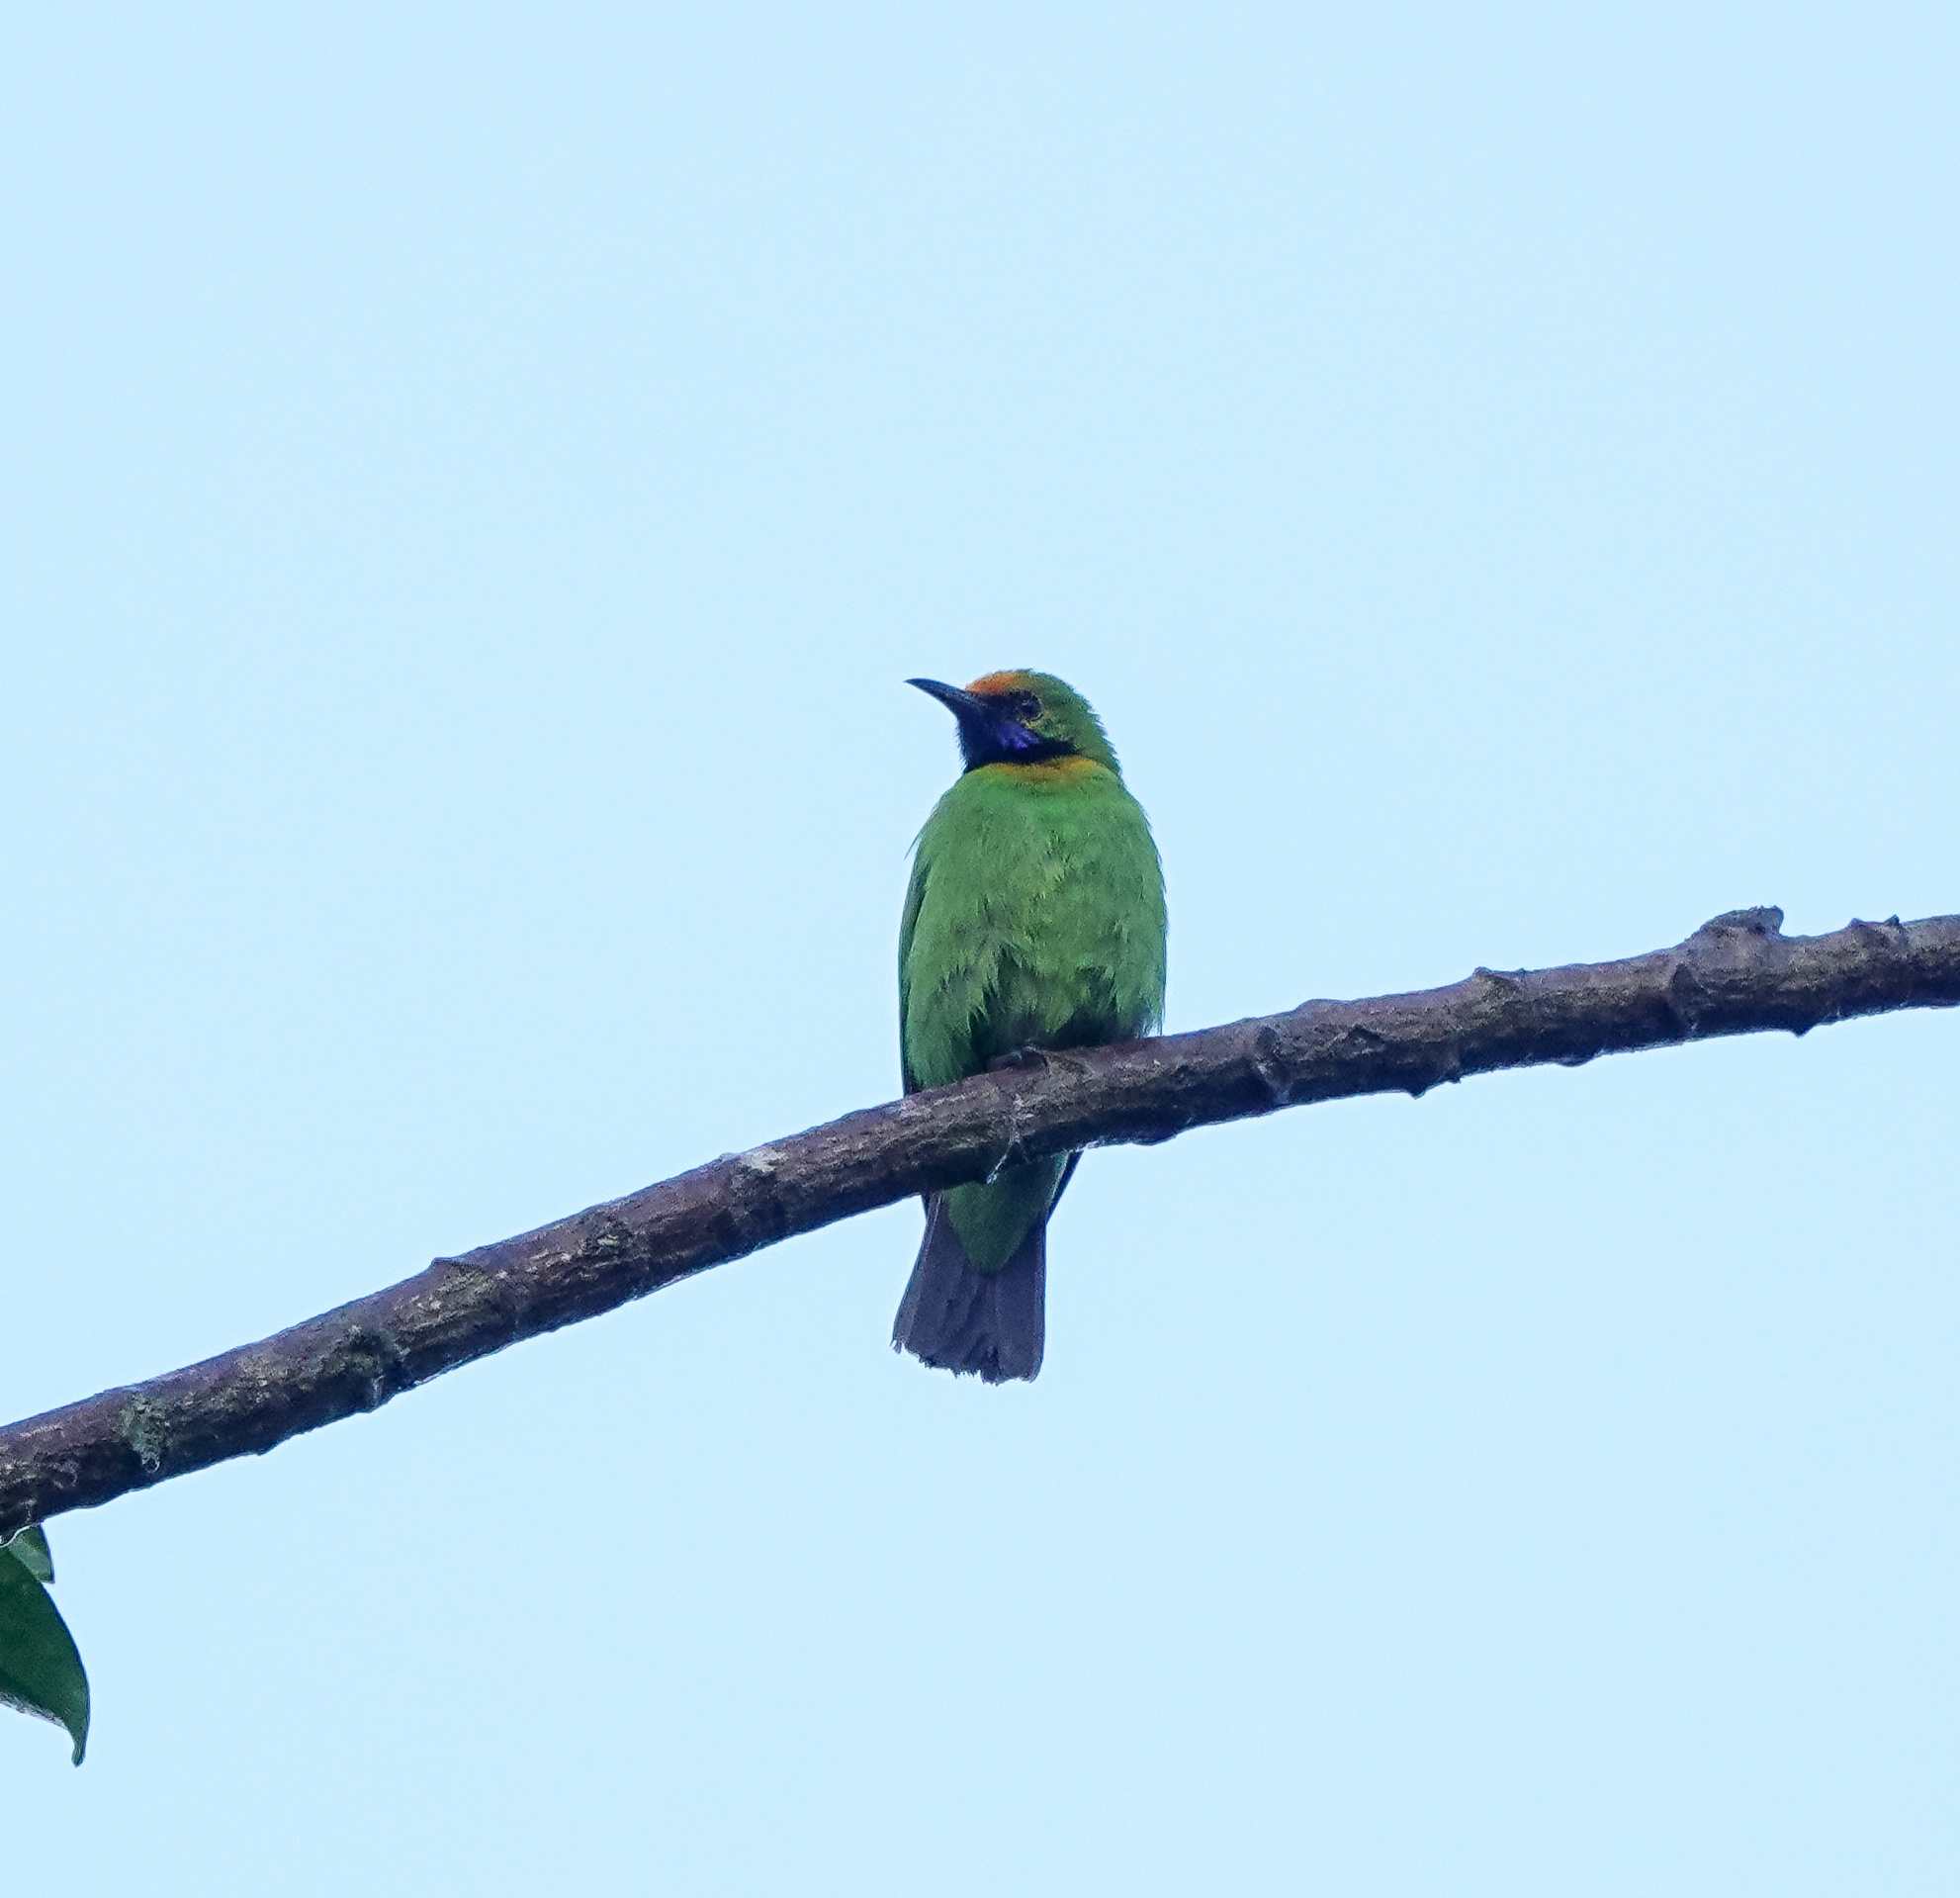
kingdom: Animalia
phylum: Chordata
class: Aves
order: Passeriformes
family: Chloropseidae
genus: Chloropsis
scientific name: Chloropsis aurifrons
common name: Golden-fronted leafbird
